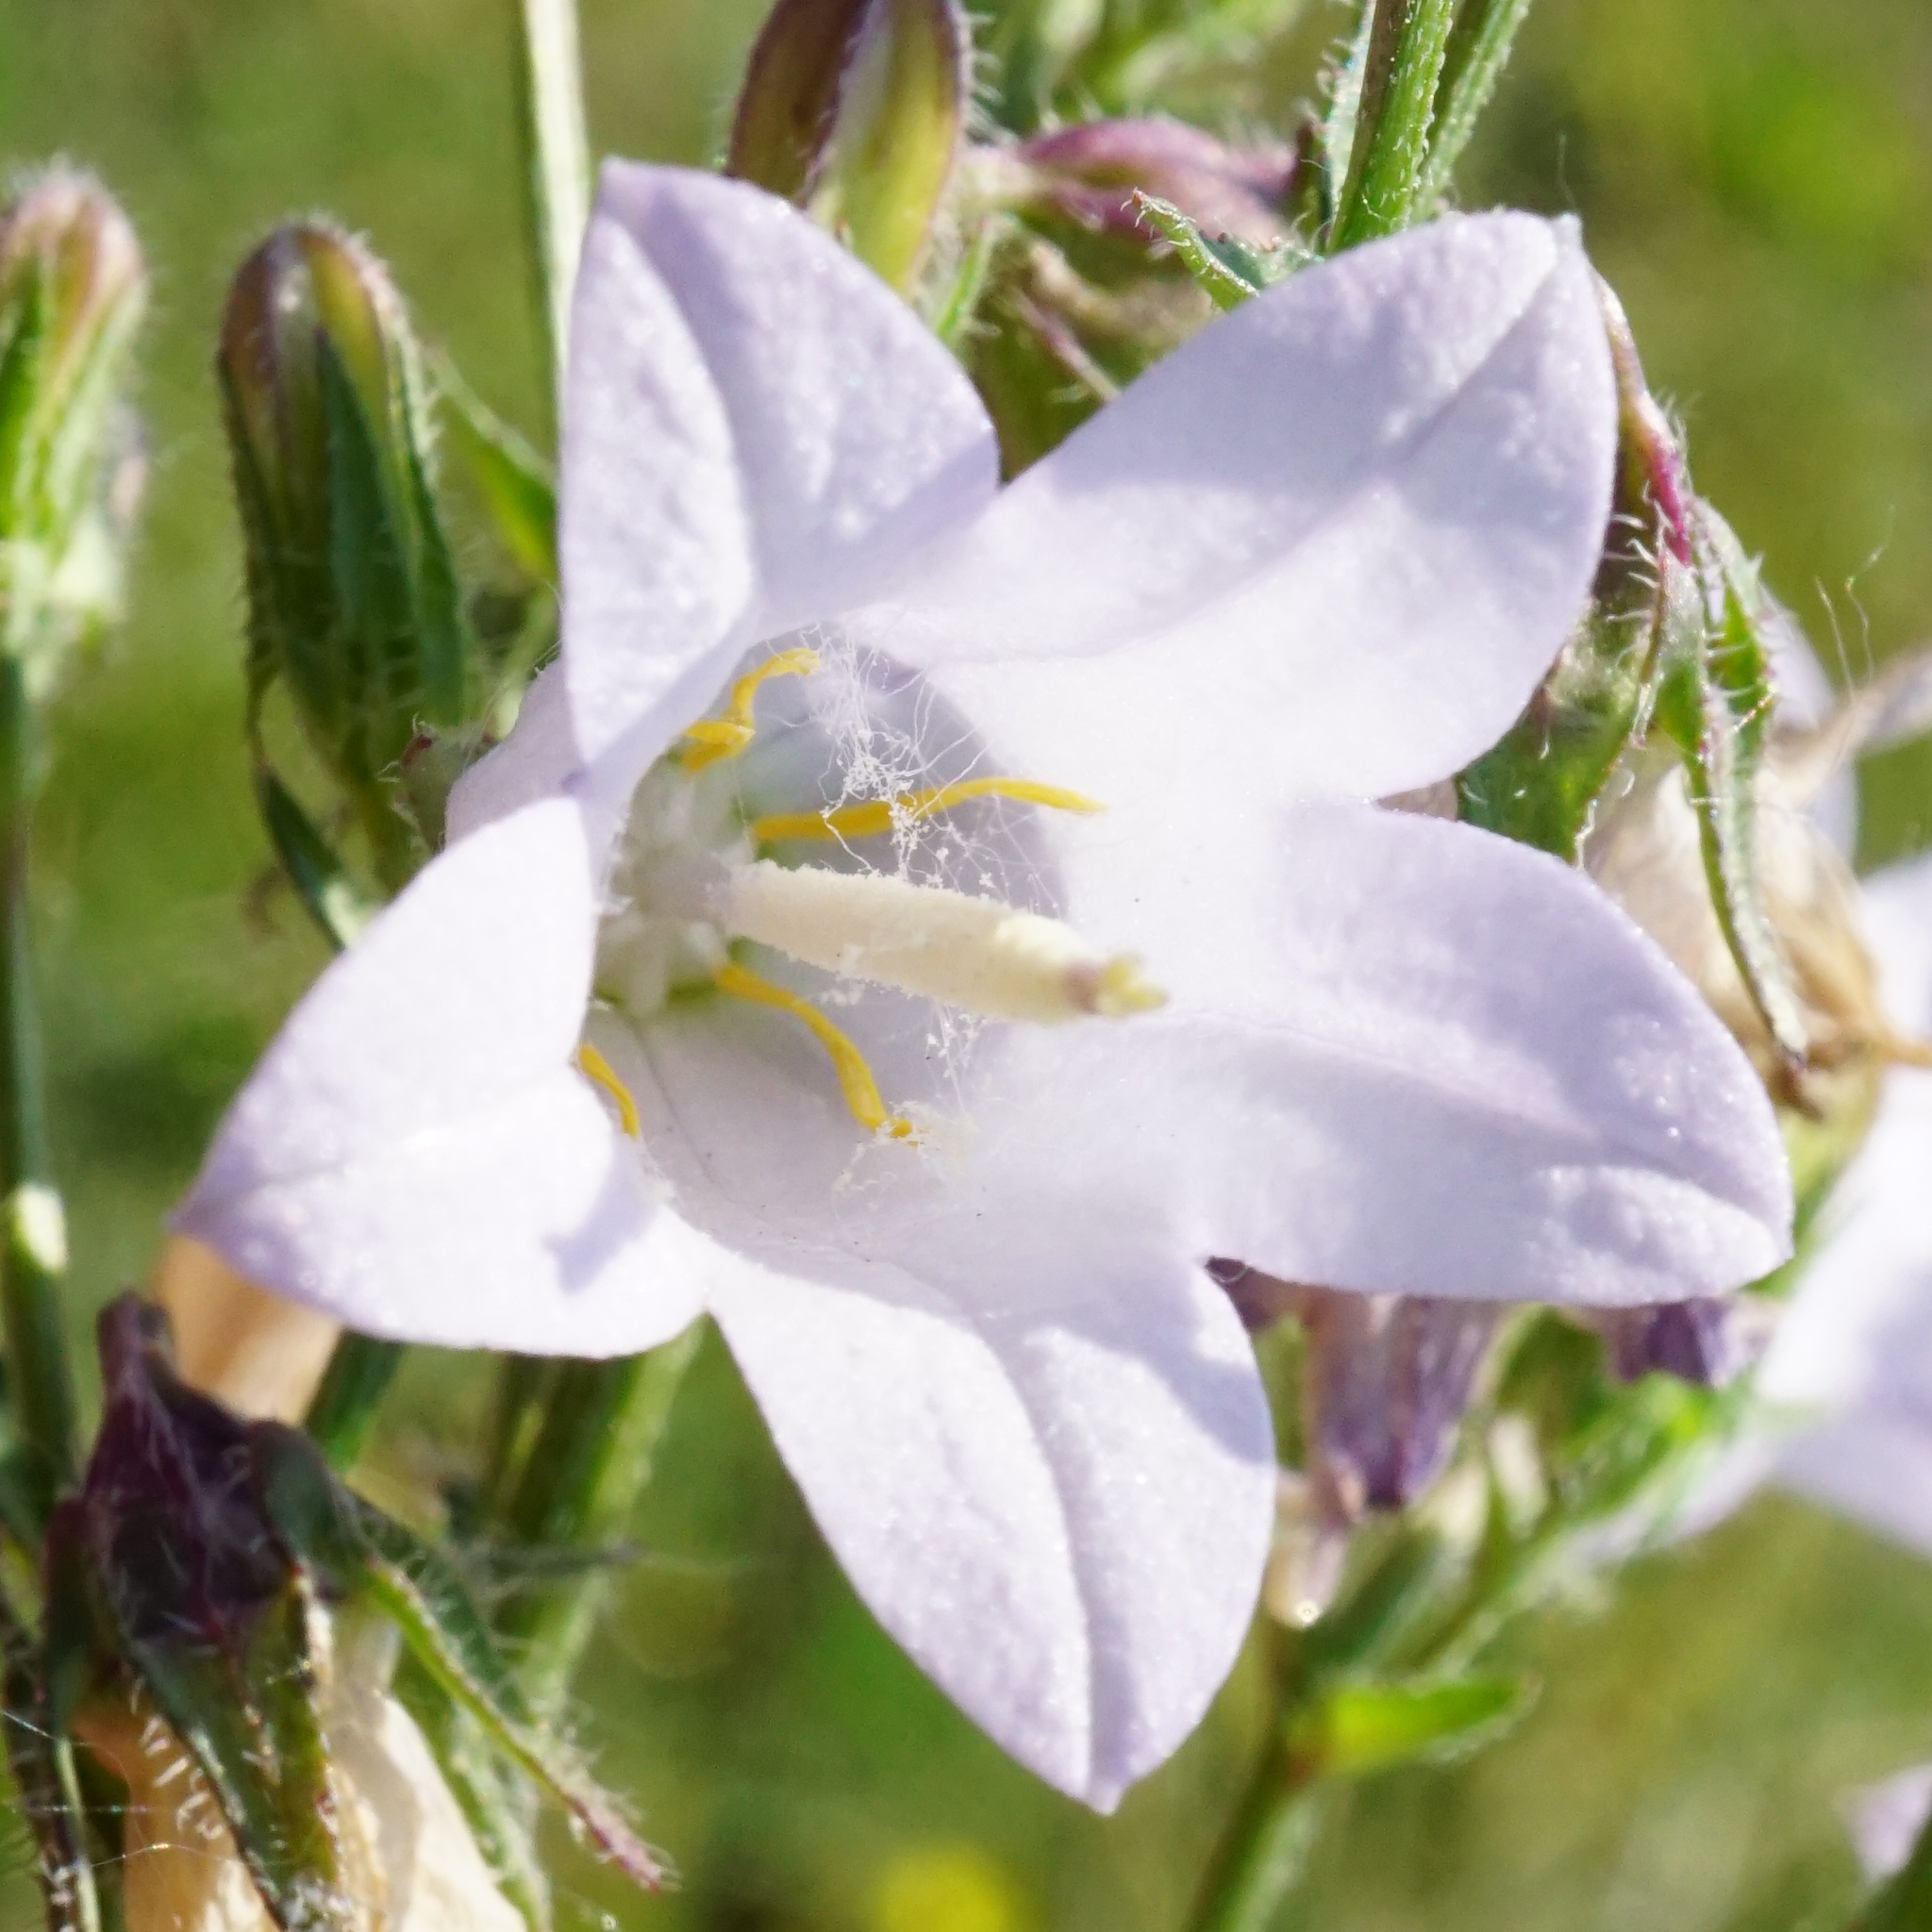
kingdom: Plantae
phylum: Tracheophyta
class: Magnoliopsida
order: Asterales
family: Campanulaceae
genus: Campanula
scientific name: Campanula sibirica
